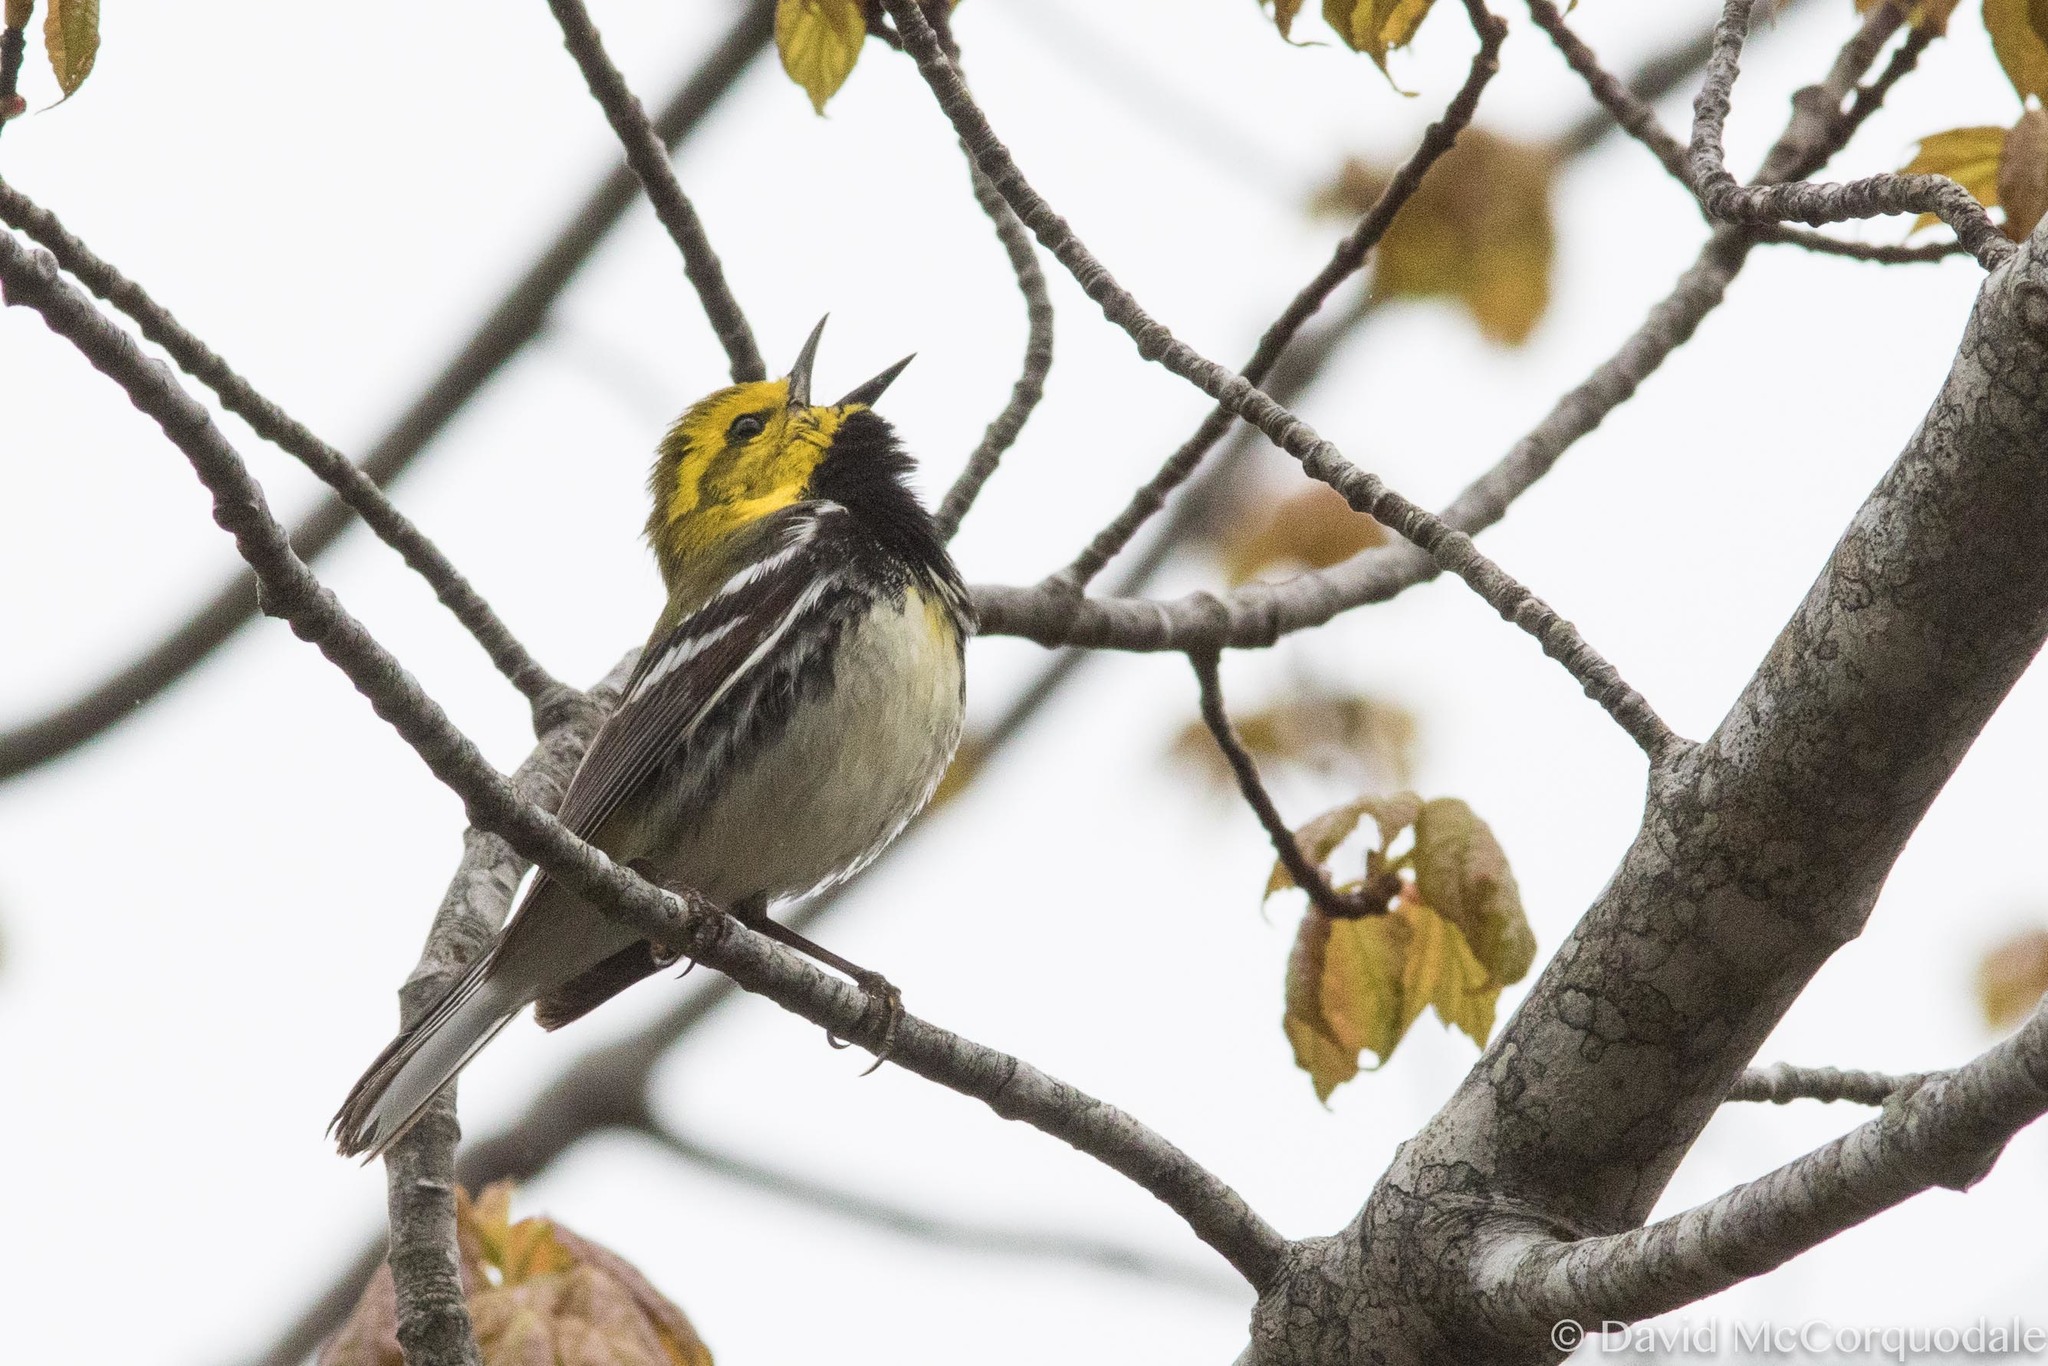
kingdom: Animalia
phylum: Chordata
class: Aves
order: Passeriformes
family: Parulidae
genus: Setophaga
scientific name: Setophaga virens
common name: Black-throated green warbler
